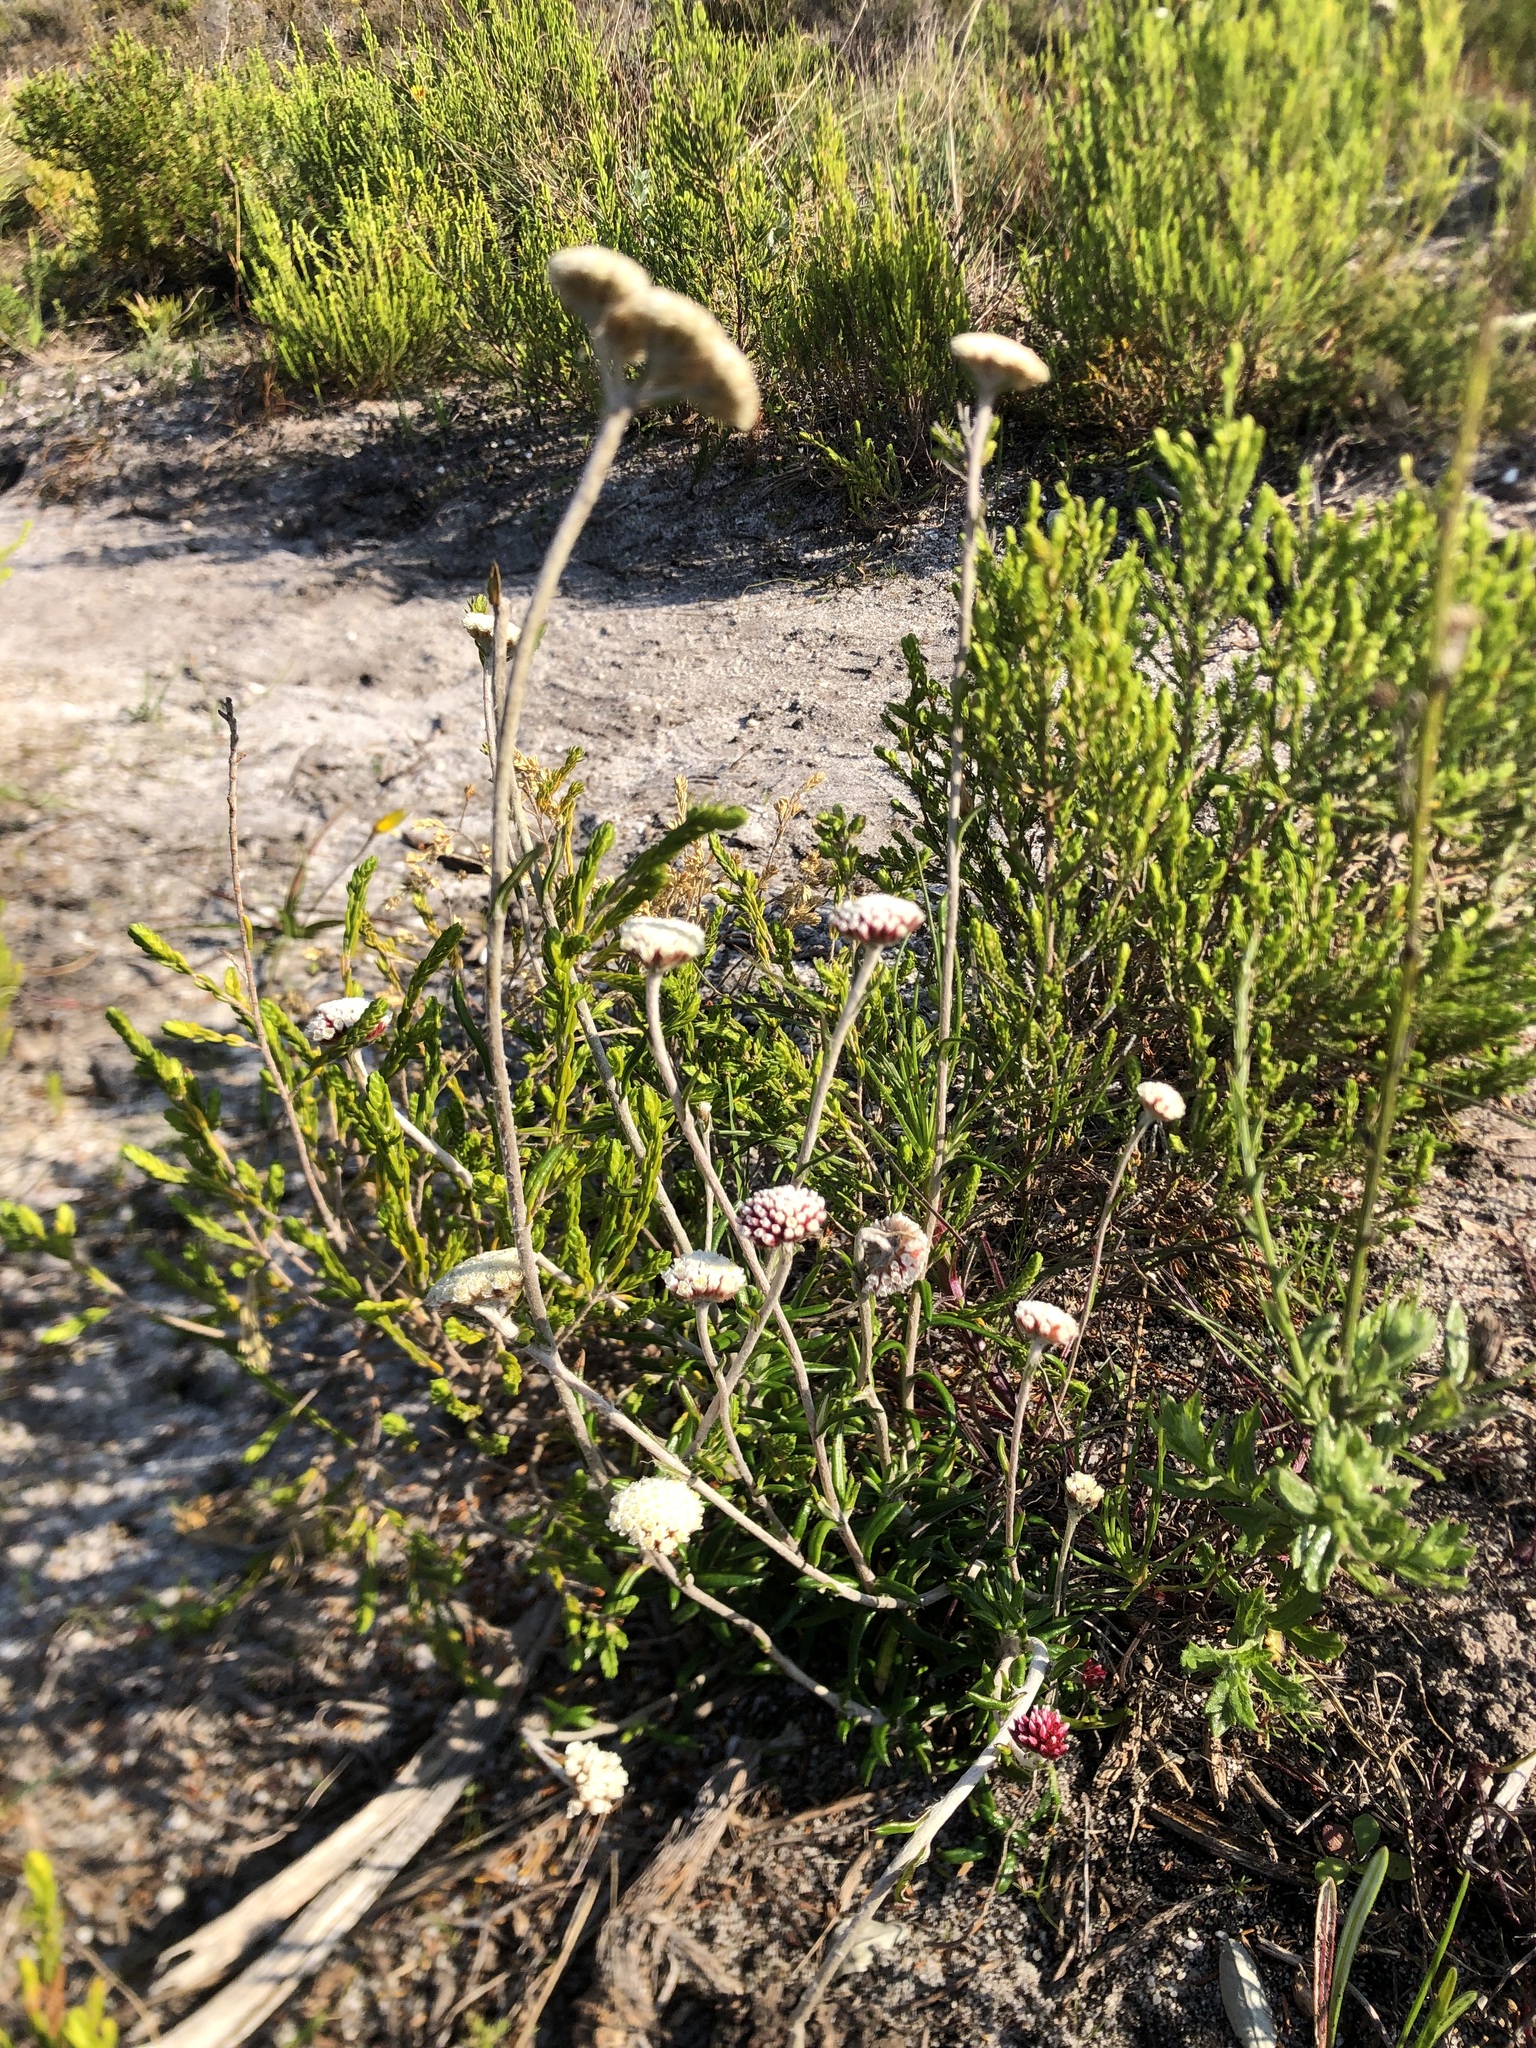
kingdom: Plantae
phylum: Tracheophyta
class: Magnoliopsida
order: Asterales
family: Asteraceae
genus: Anaxeton
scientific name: Anaxeton laeve
